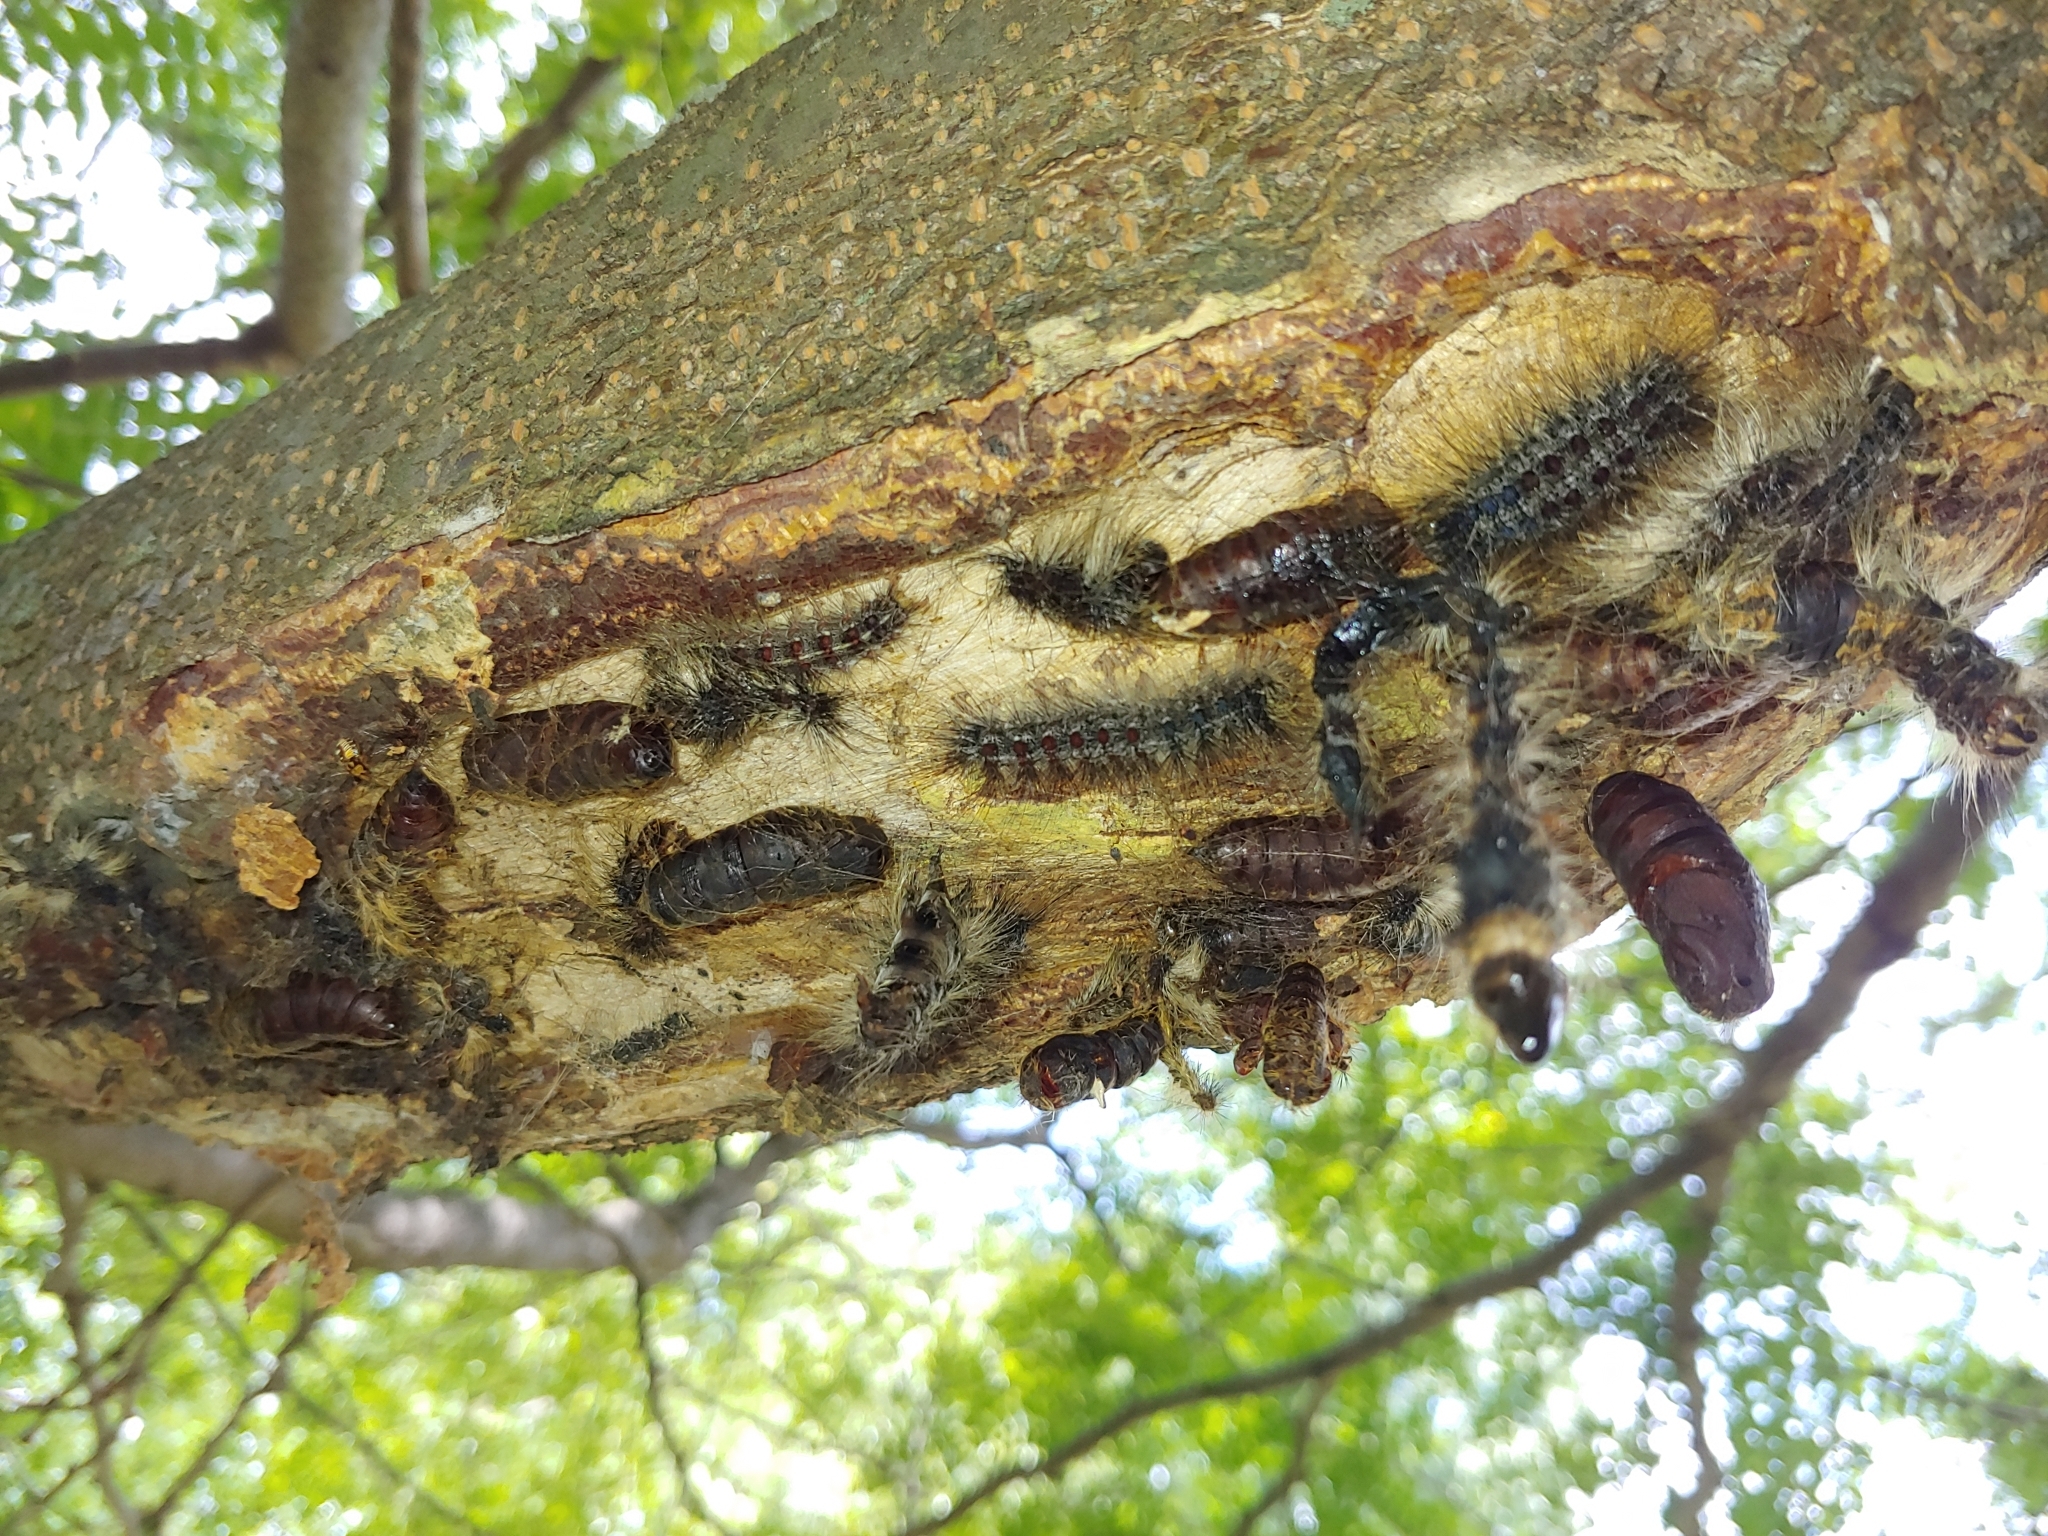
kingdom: Animalia
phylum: Arthropoda
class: Insecta
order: Lepidoptera
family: Erebidae
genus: Lymantria
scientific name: Lymantria dispar
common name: Gypsy moth
